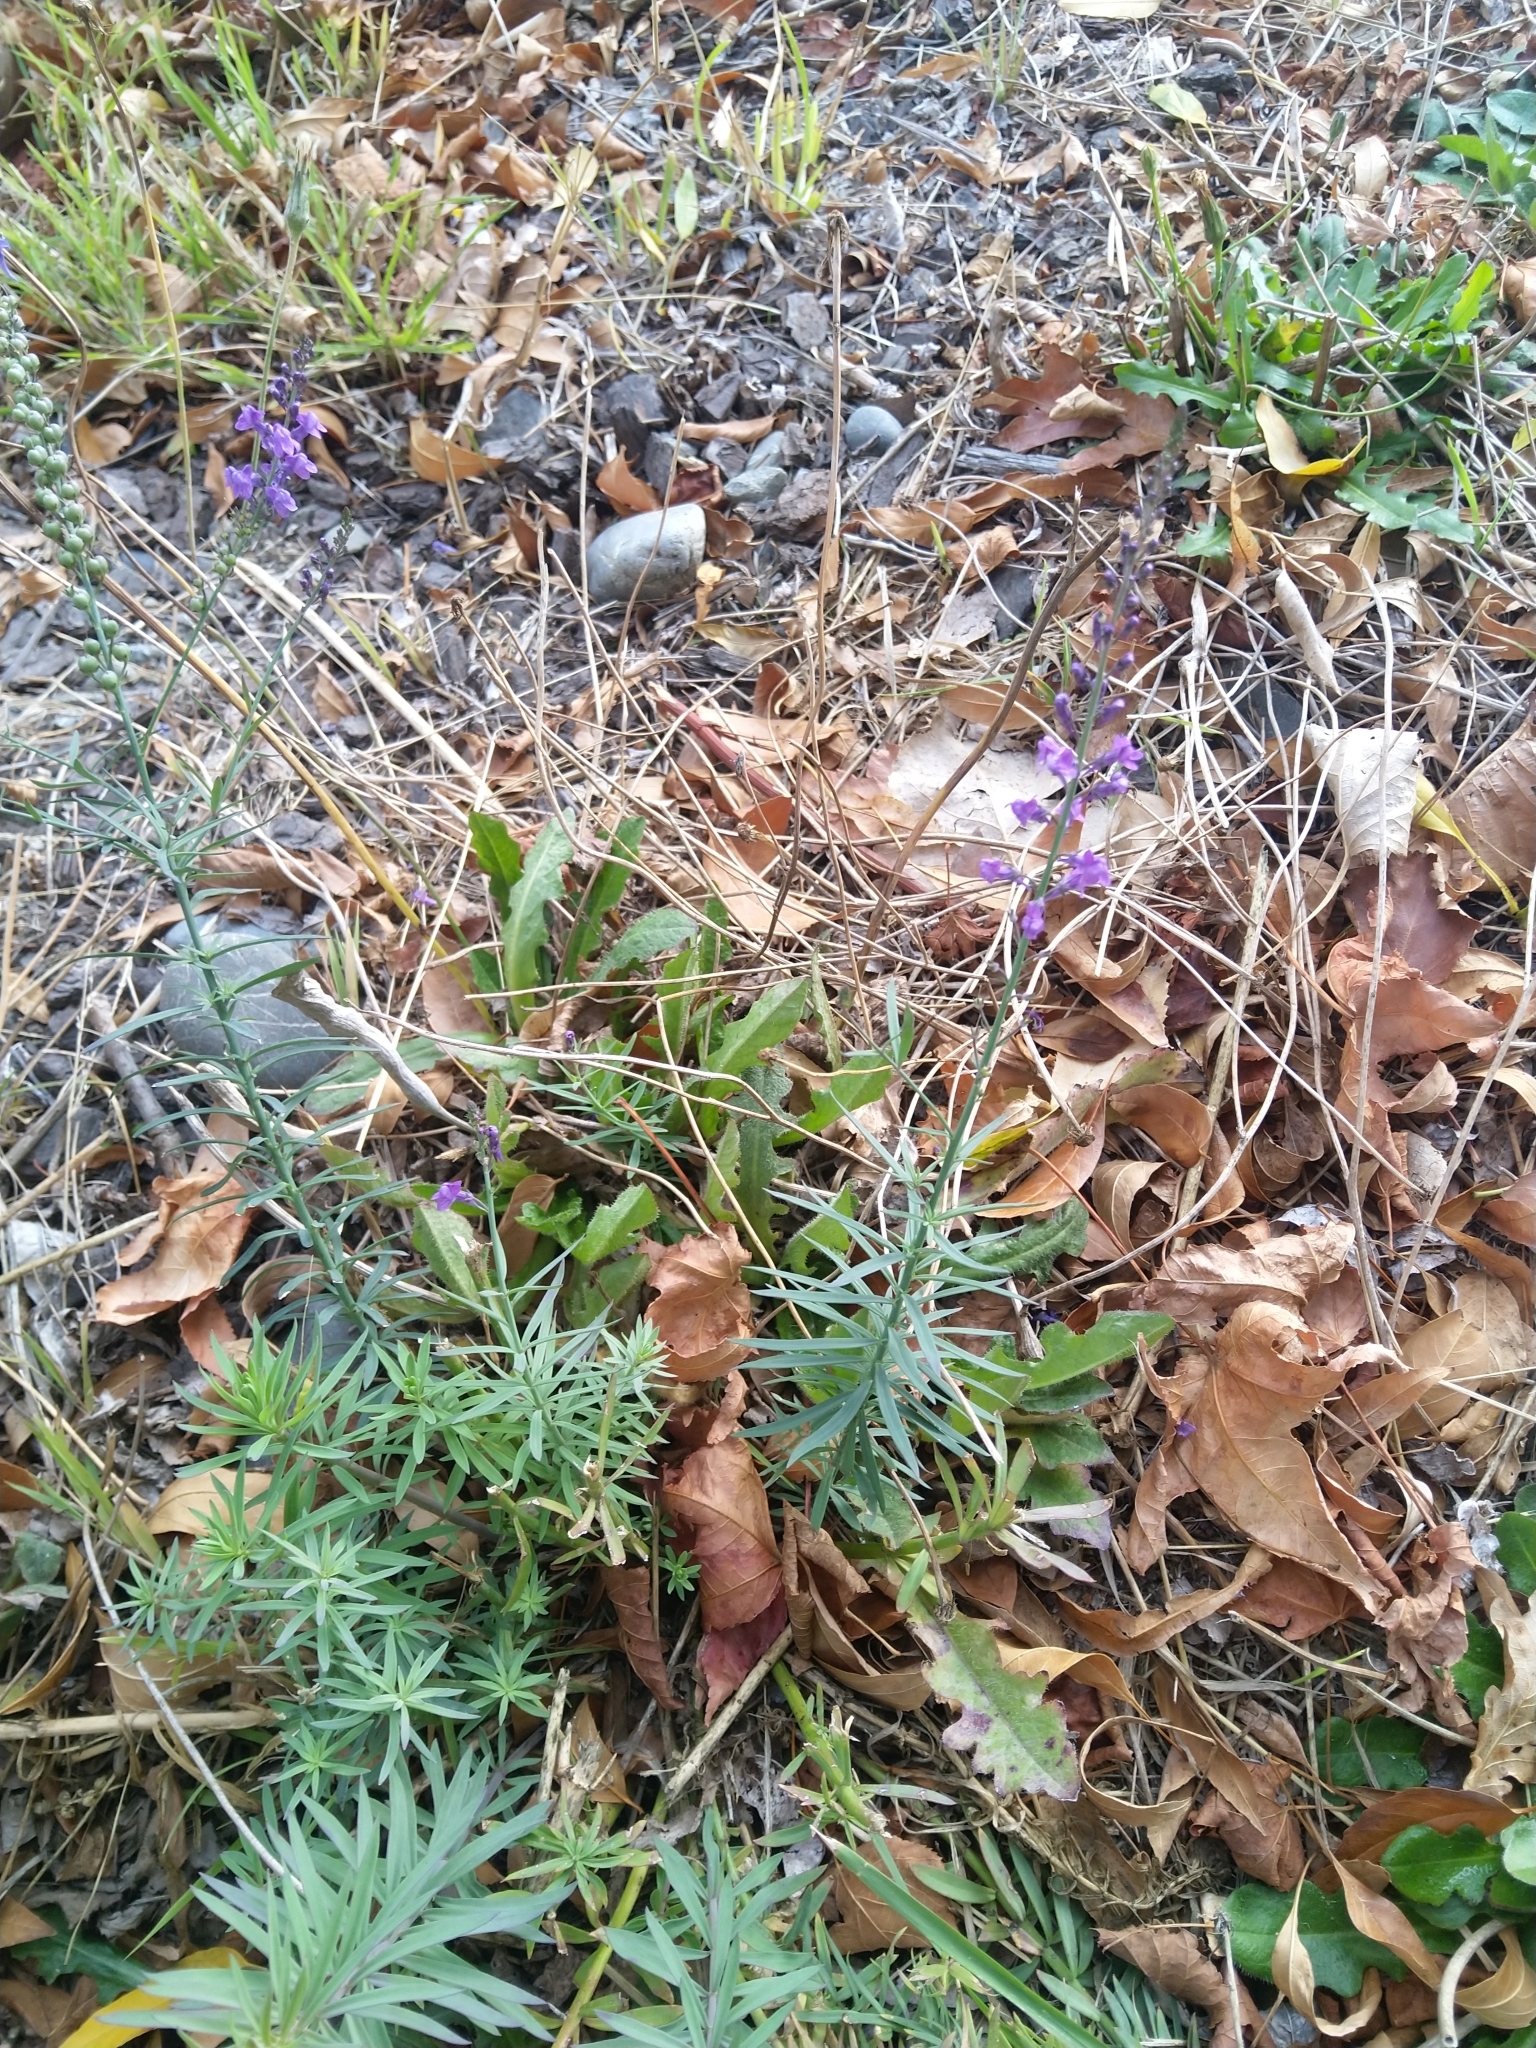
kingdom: Plantae
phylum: Tracheophyta
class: Magnoliopsida
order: Lamiales
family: Plantaginaceae
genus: Linaria
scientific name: Linaria purpurea
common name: Purple toadflax
